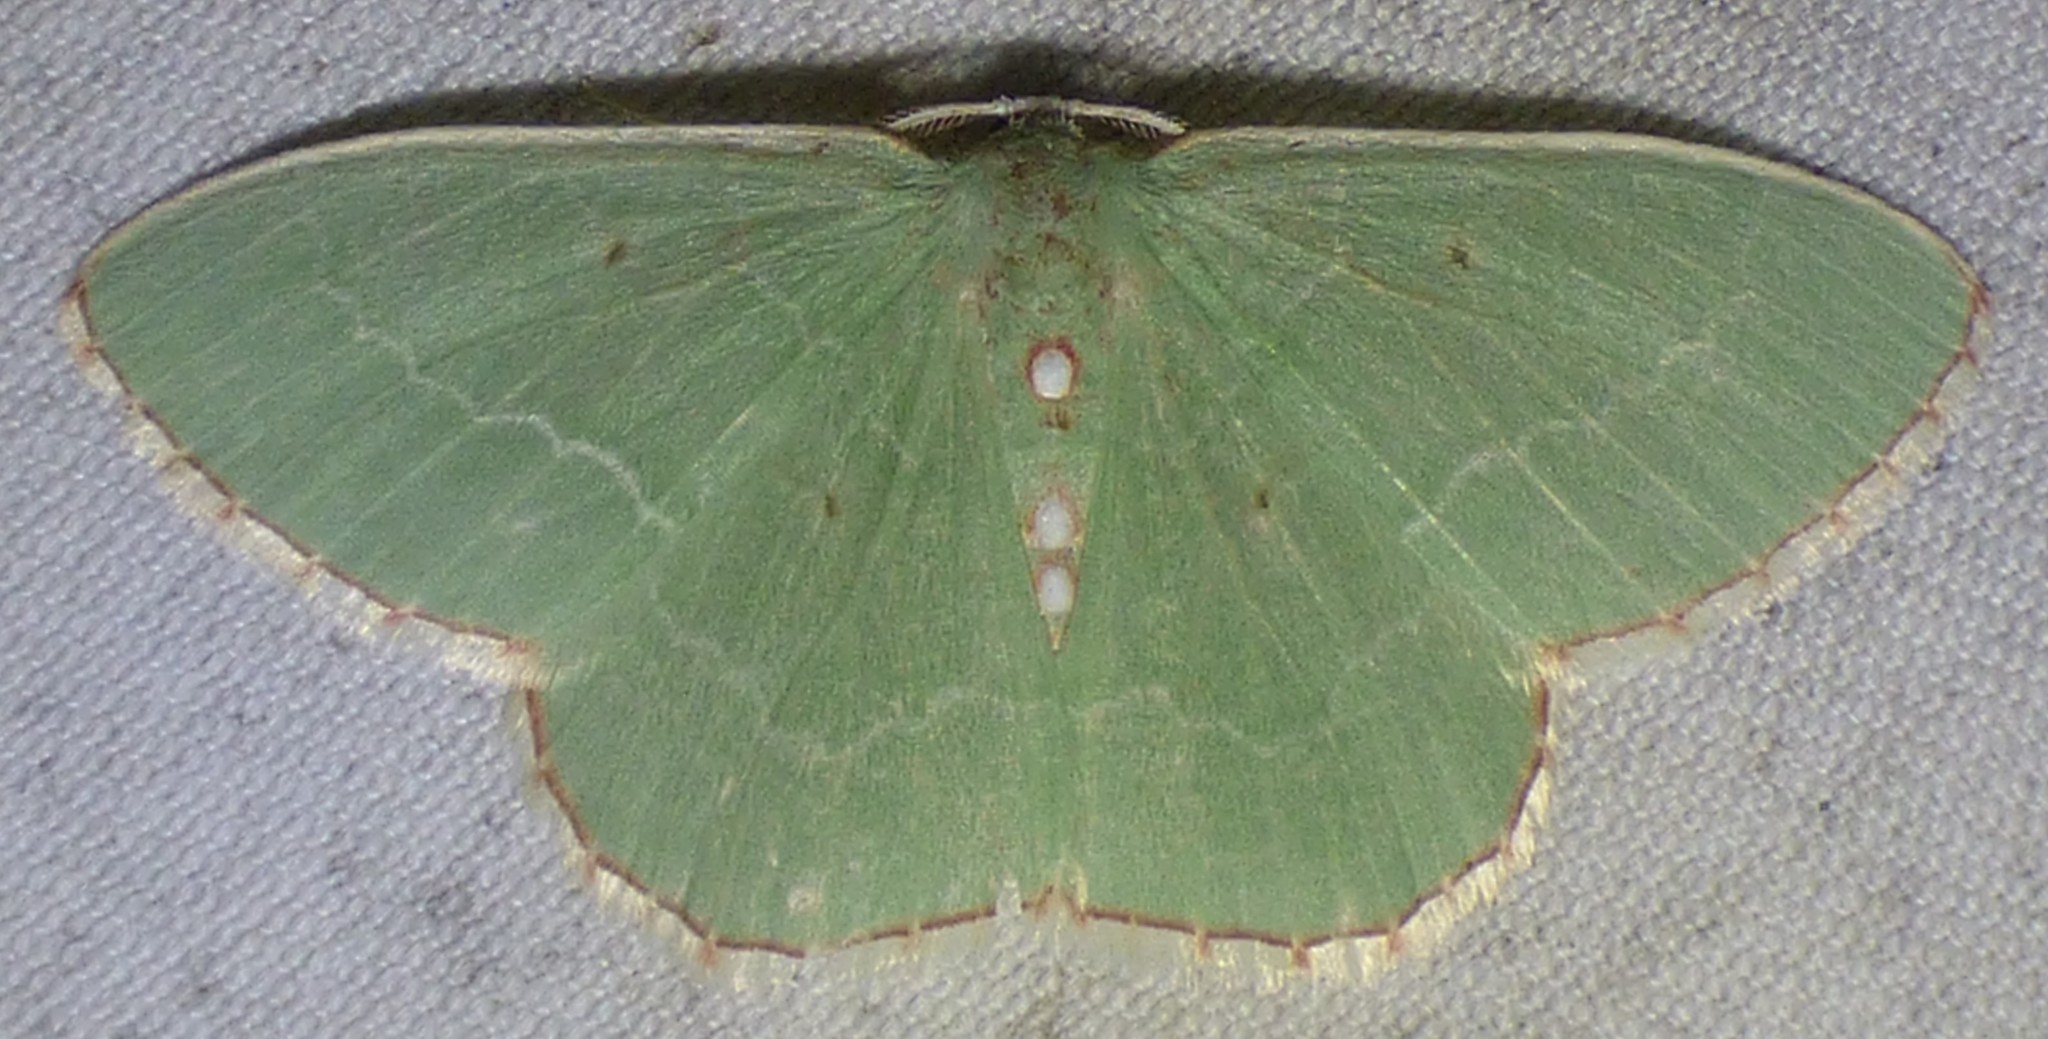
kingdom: Animalia
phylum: Arthropoda
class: Insecta
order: Lepidoptera
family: Geometridae
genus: Nemoria
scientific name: Nemoria lixaria
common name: Red-bordered emerald
